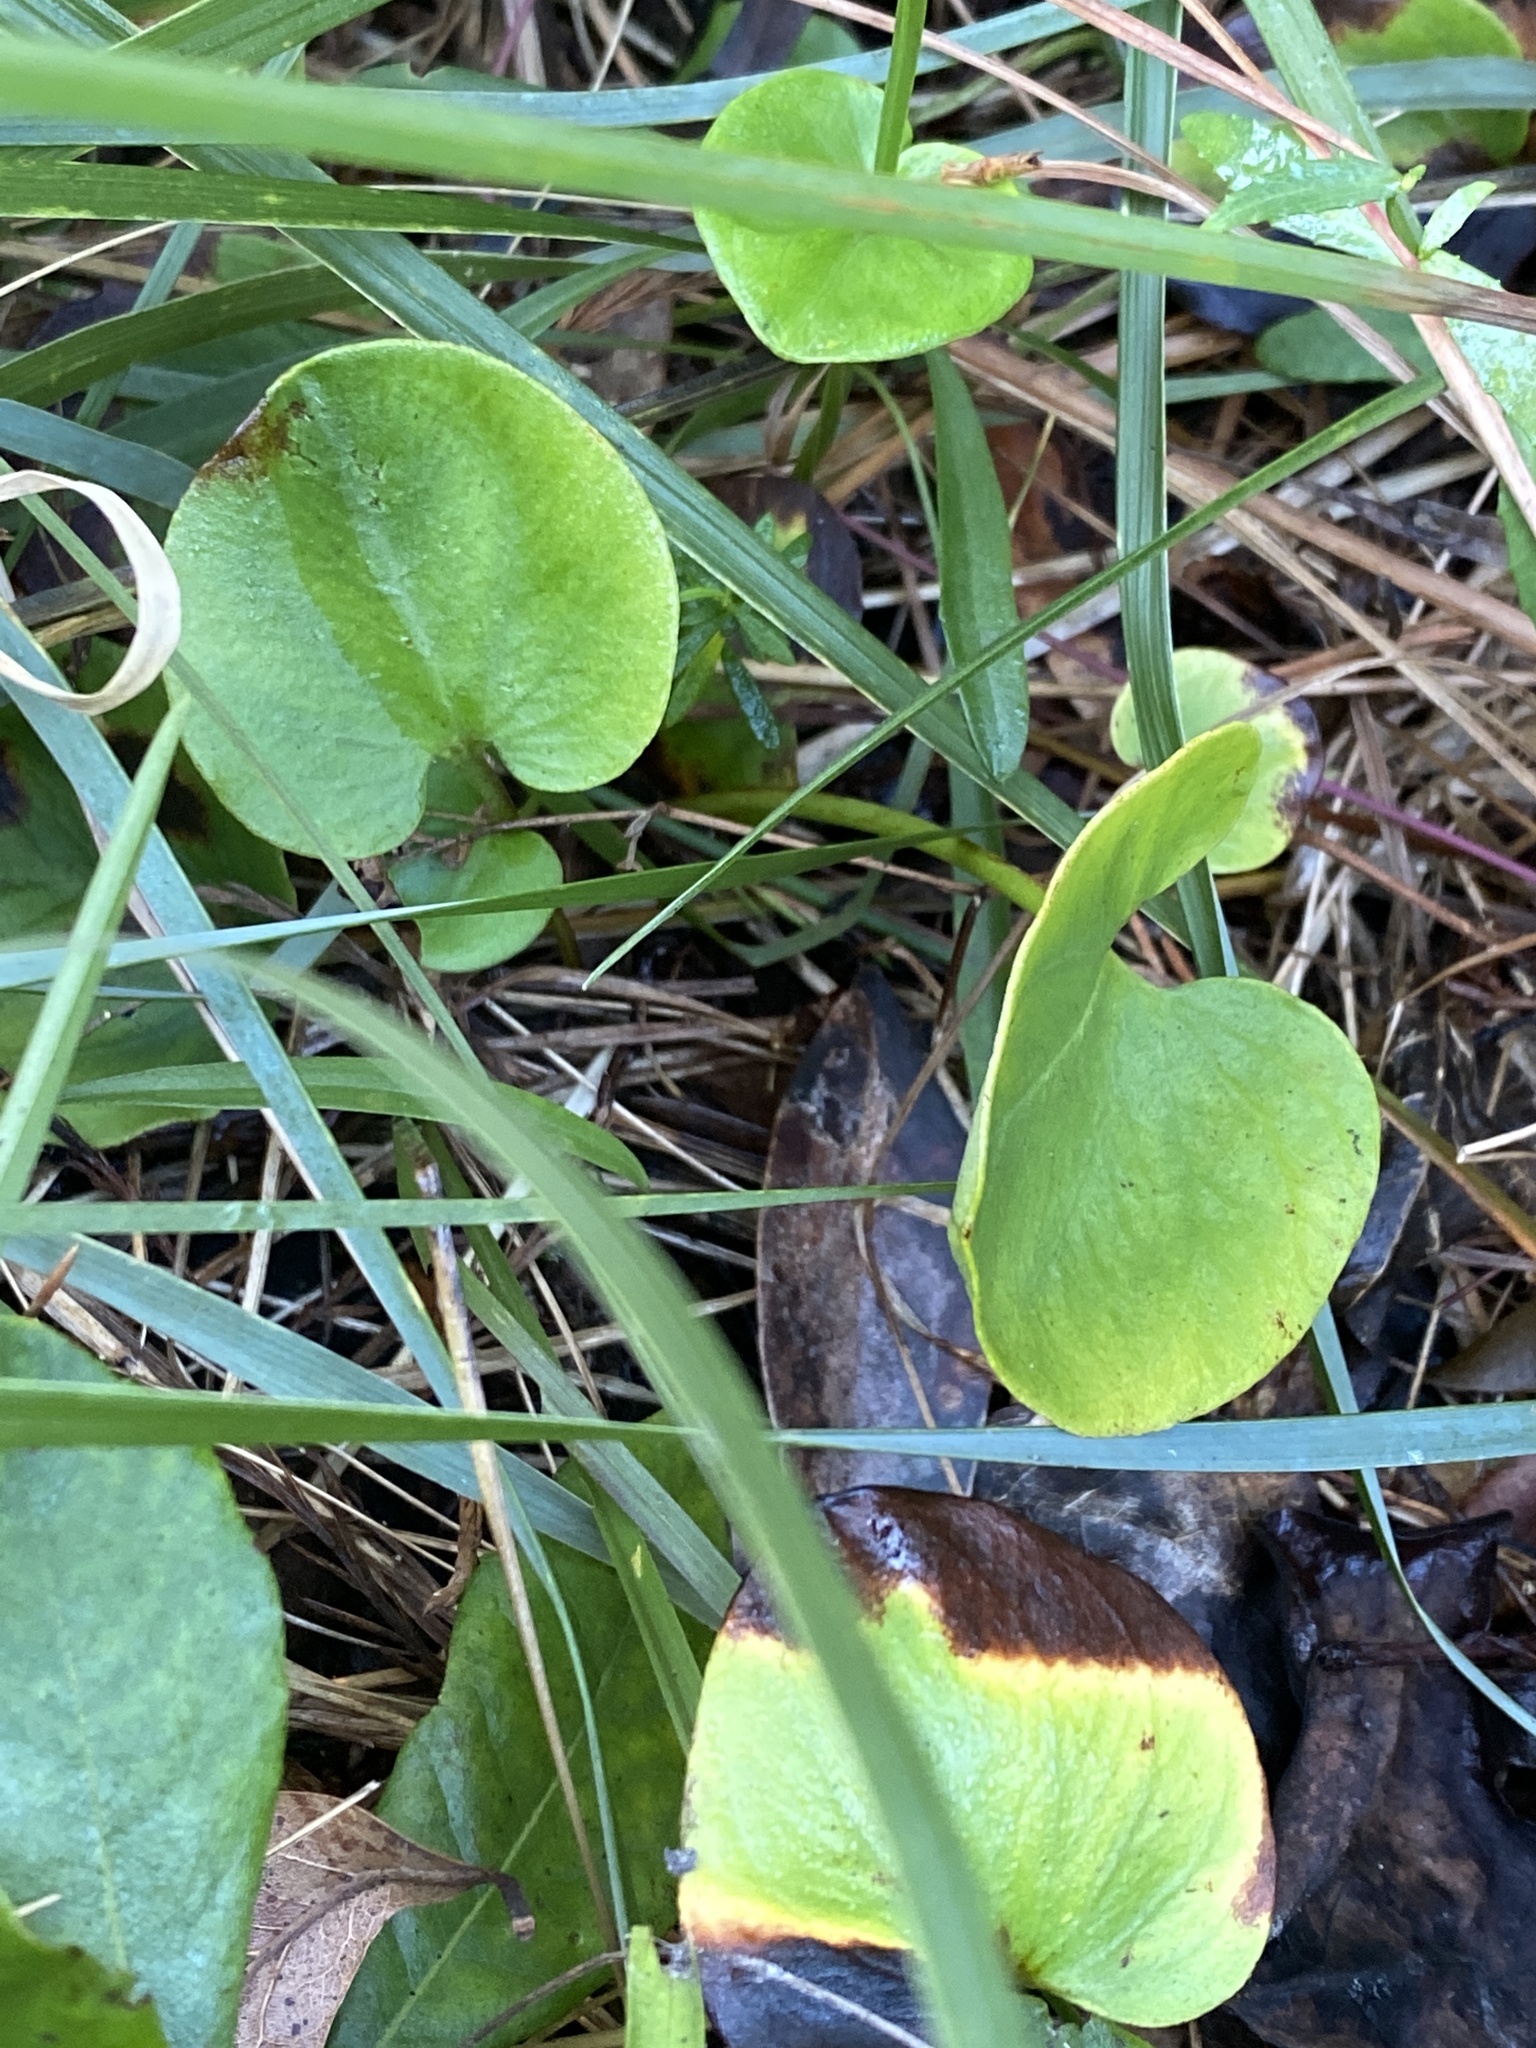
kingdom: Plantae
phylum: Tracheophyta
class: Magnoliopsida
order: Celastrales
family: Parnassiaceae
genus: Parnassia
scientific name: Parnassia caroliniana
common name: Carolina grass of parnassus
